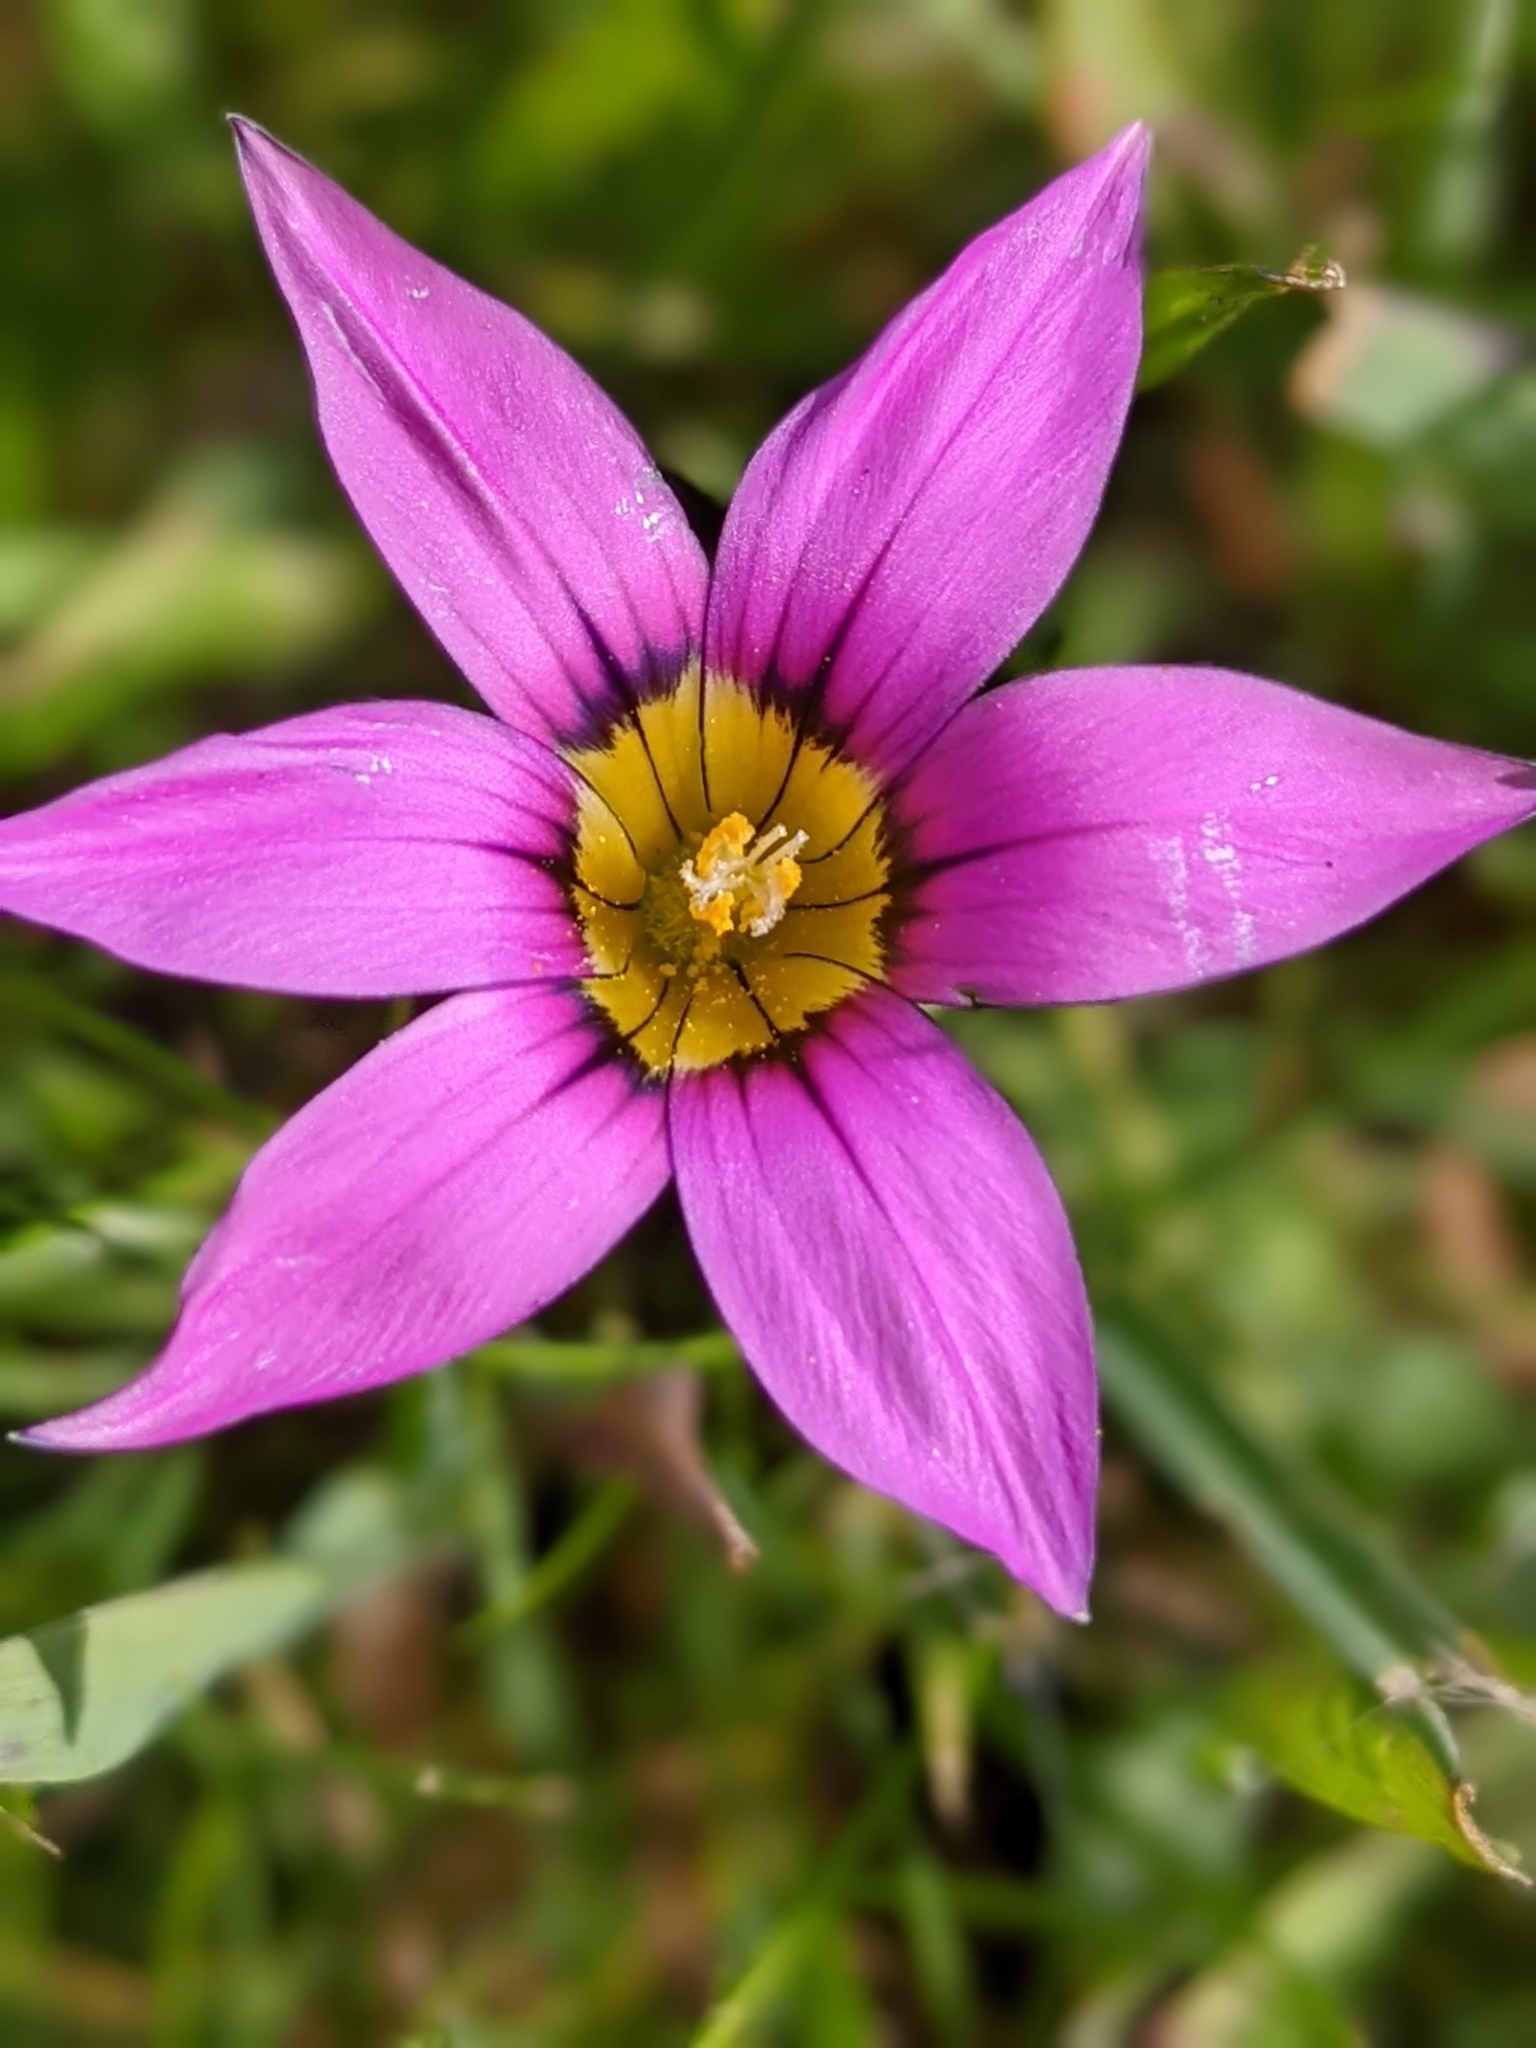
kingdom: Plantae
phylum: Tracheophyta
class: Liliopsida
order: Asparagales
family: Iridaceae
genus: Romulea
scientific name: Romulea rosea
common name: Oniongrass
